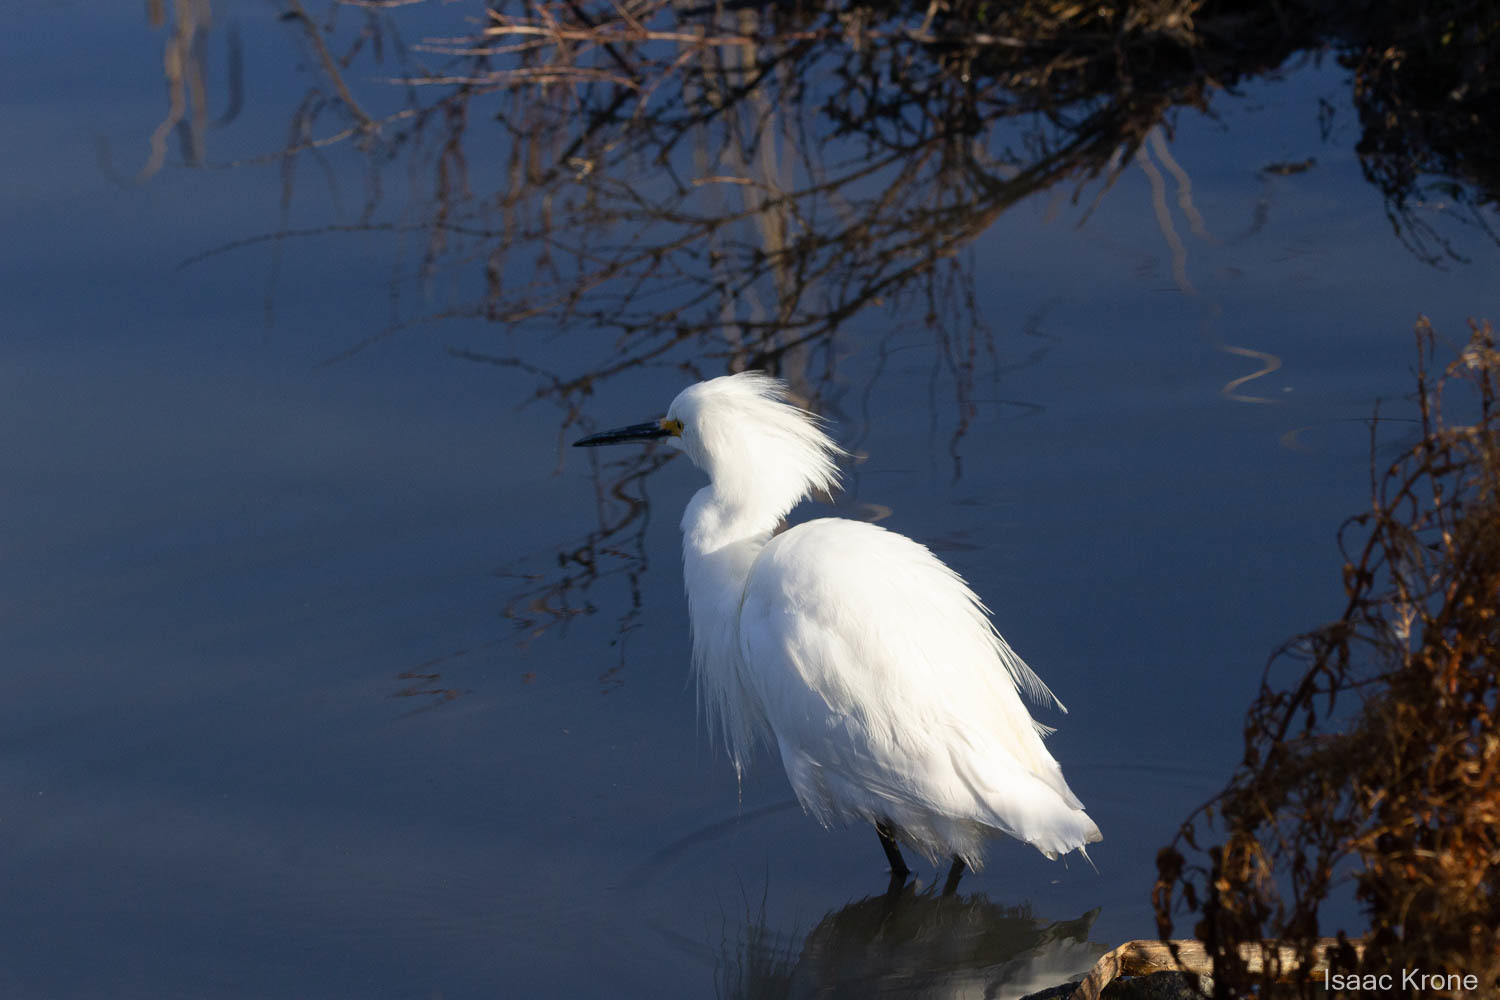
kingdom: Animalia
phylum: Chordata
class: Aves
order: Pelecaniformes
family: Ardeidae
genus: Egretta
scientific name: Egretta thula
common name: Snowy egret
